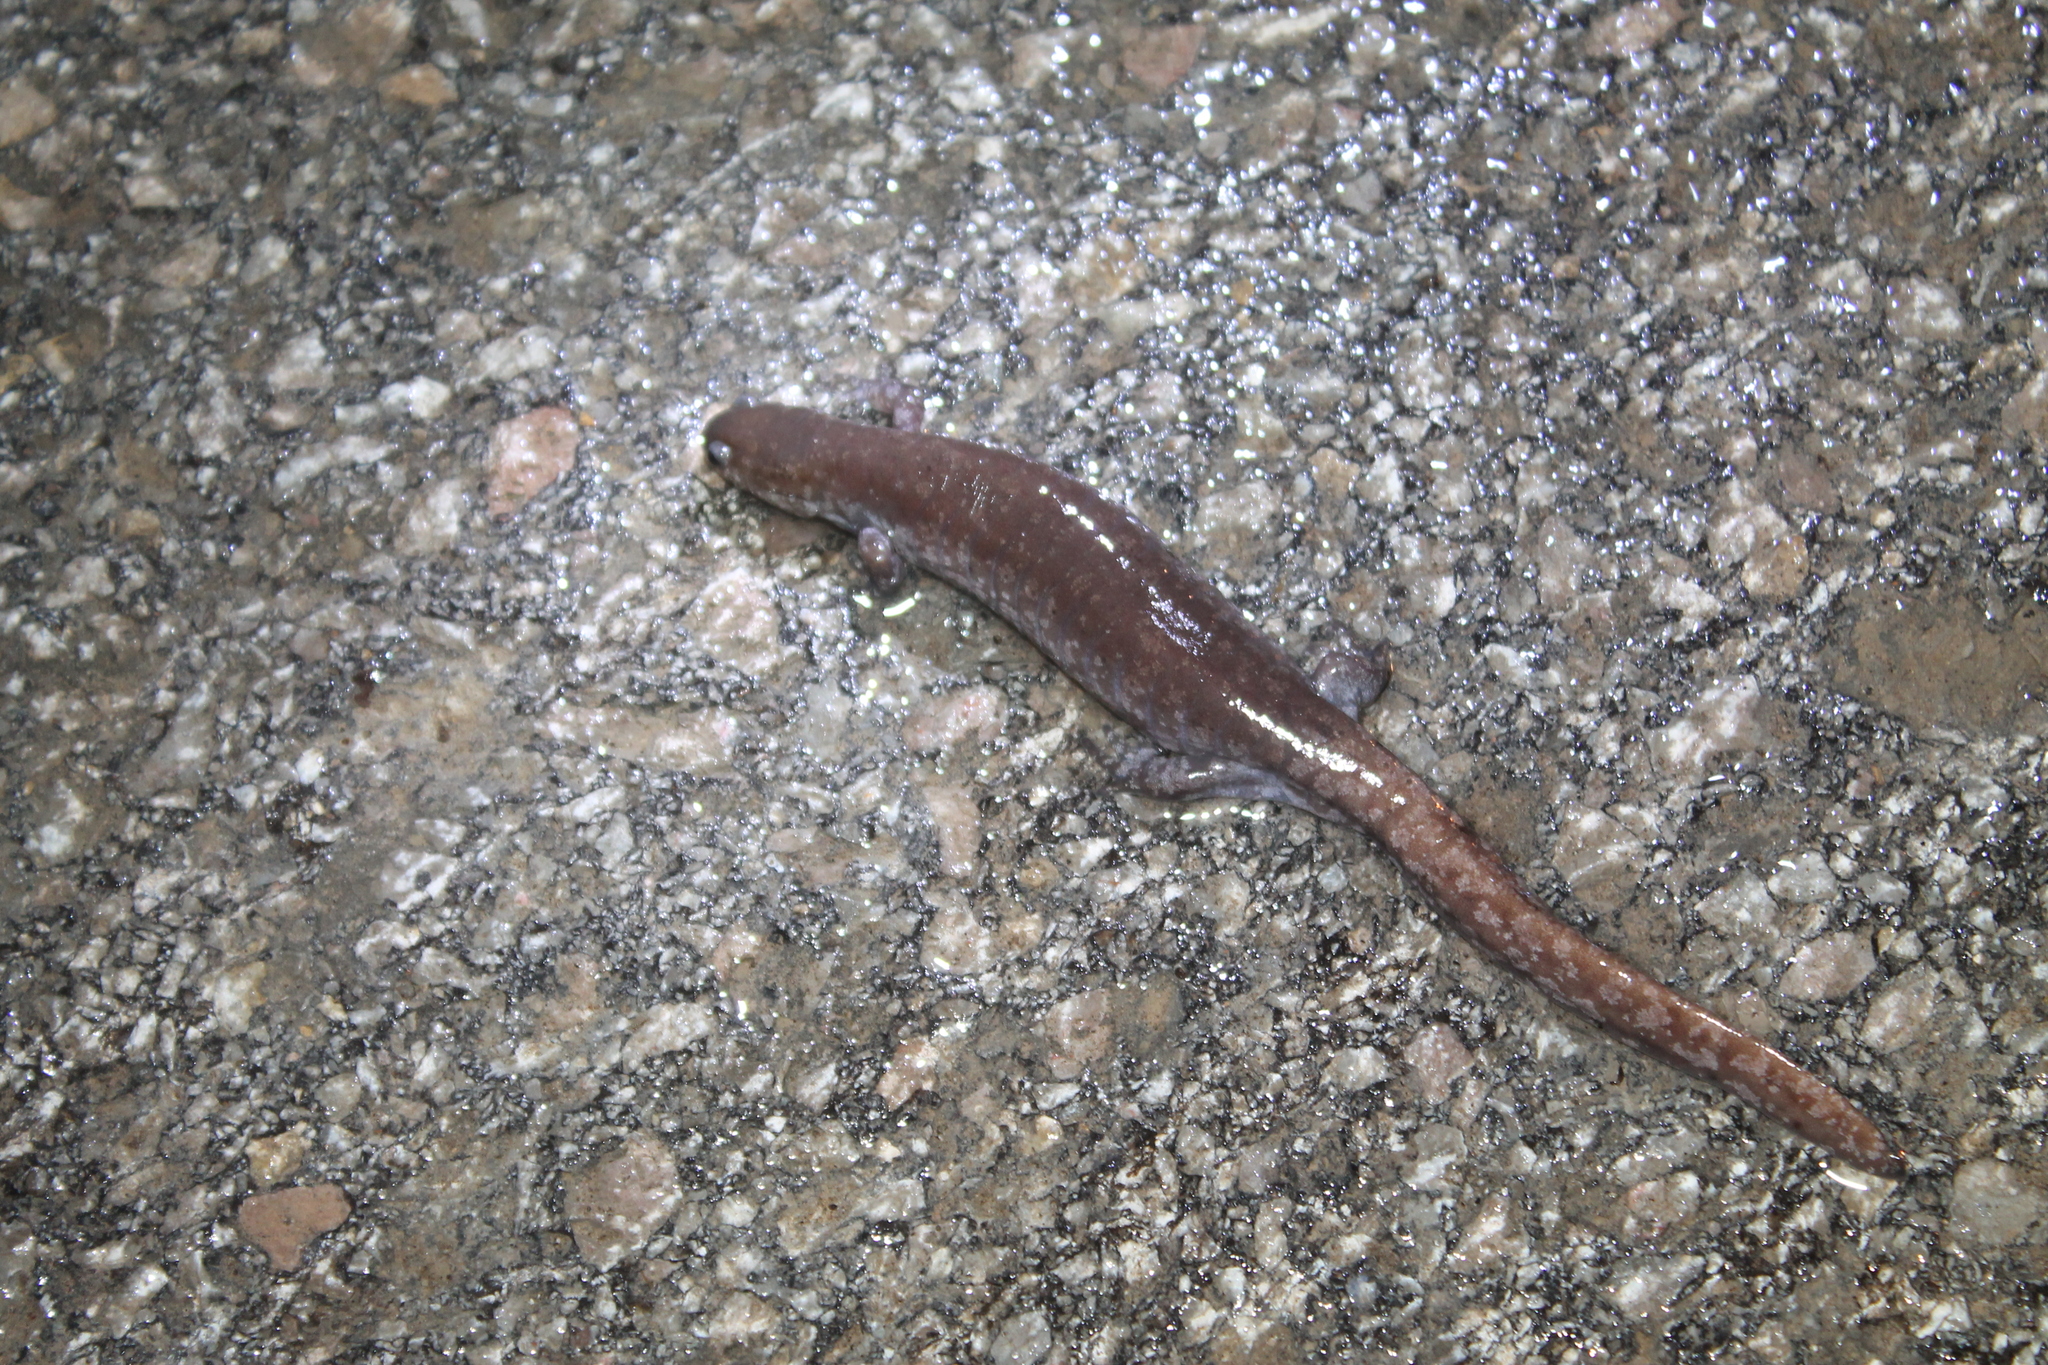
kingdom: Animalia
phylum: Chordata
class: Amphibia
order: Caudata
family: Ambystomatidae
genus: Ambystoma
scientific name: Ambystoma texanum
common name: Small-mouth salamander
